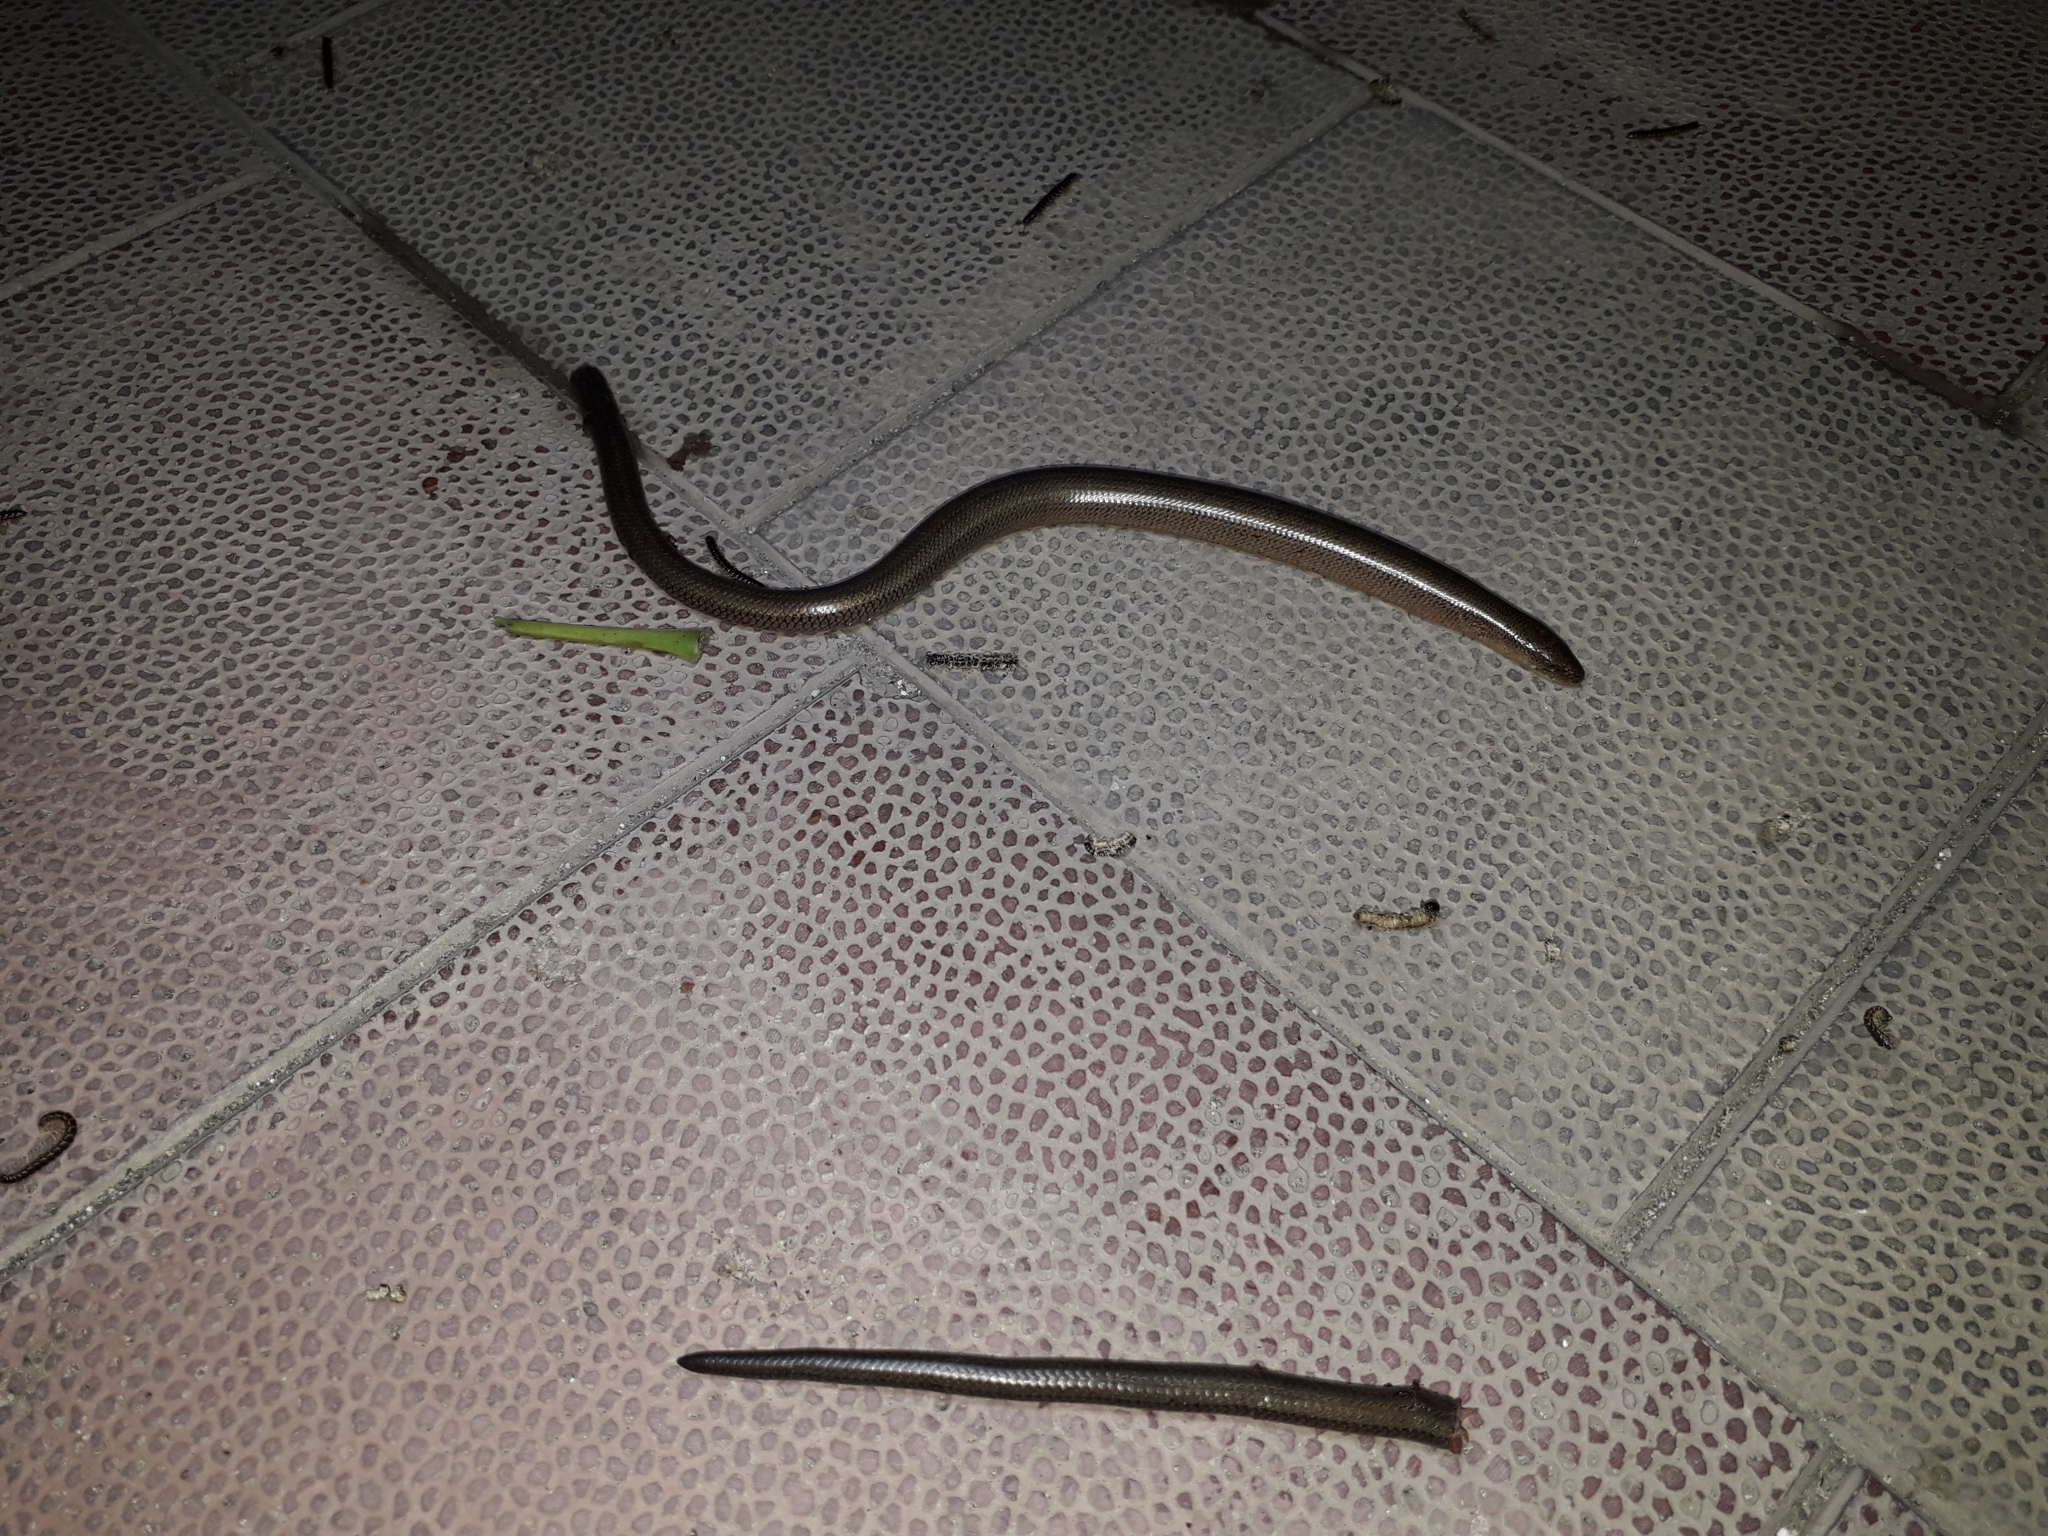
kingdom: Animalia
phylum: Chordata
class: Squamata
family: Anguidae
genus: Anguis
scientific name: Anguis colchica
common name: Slow worm
